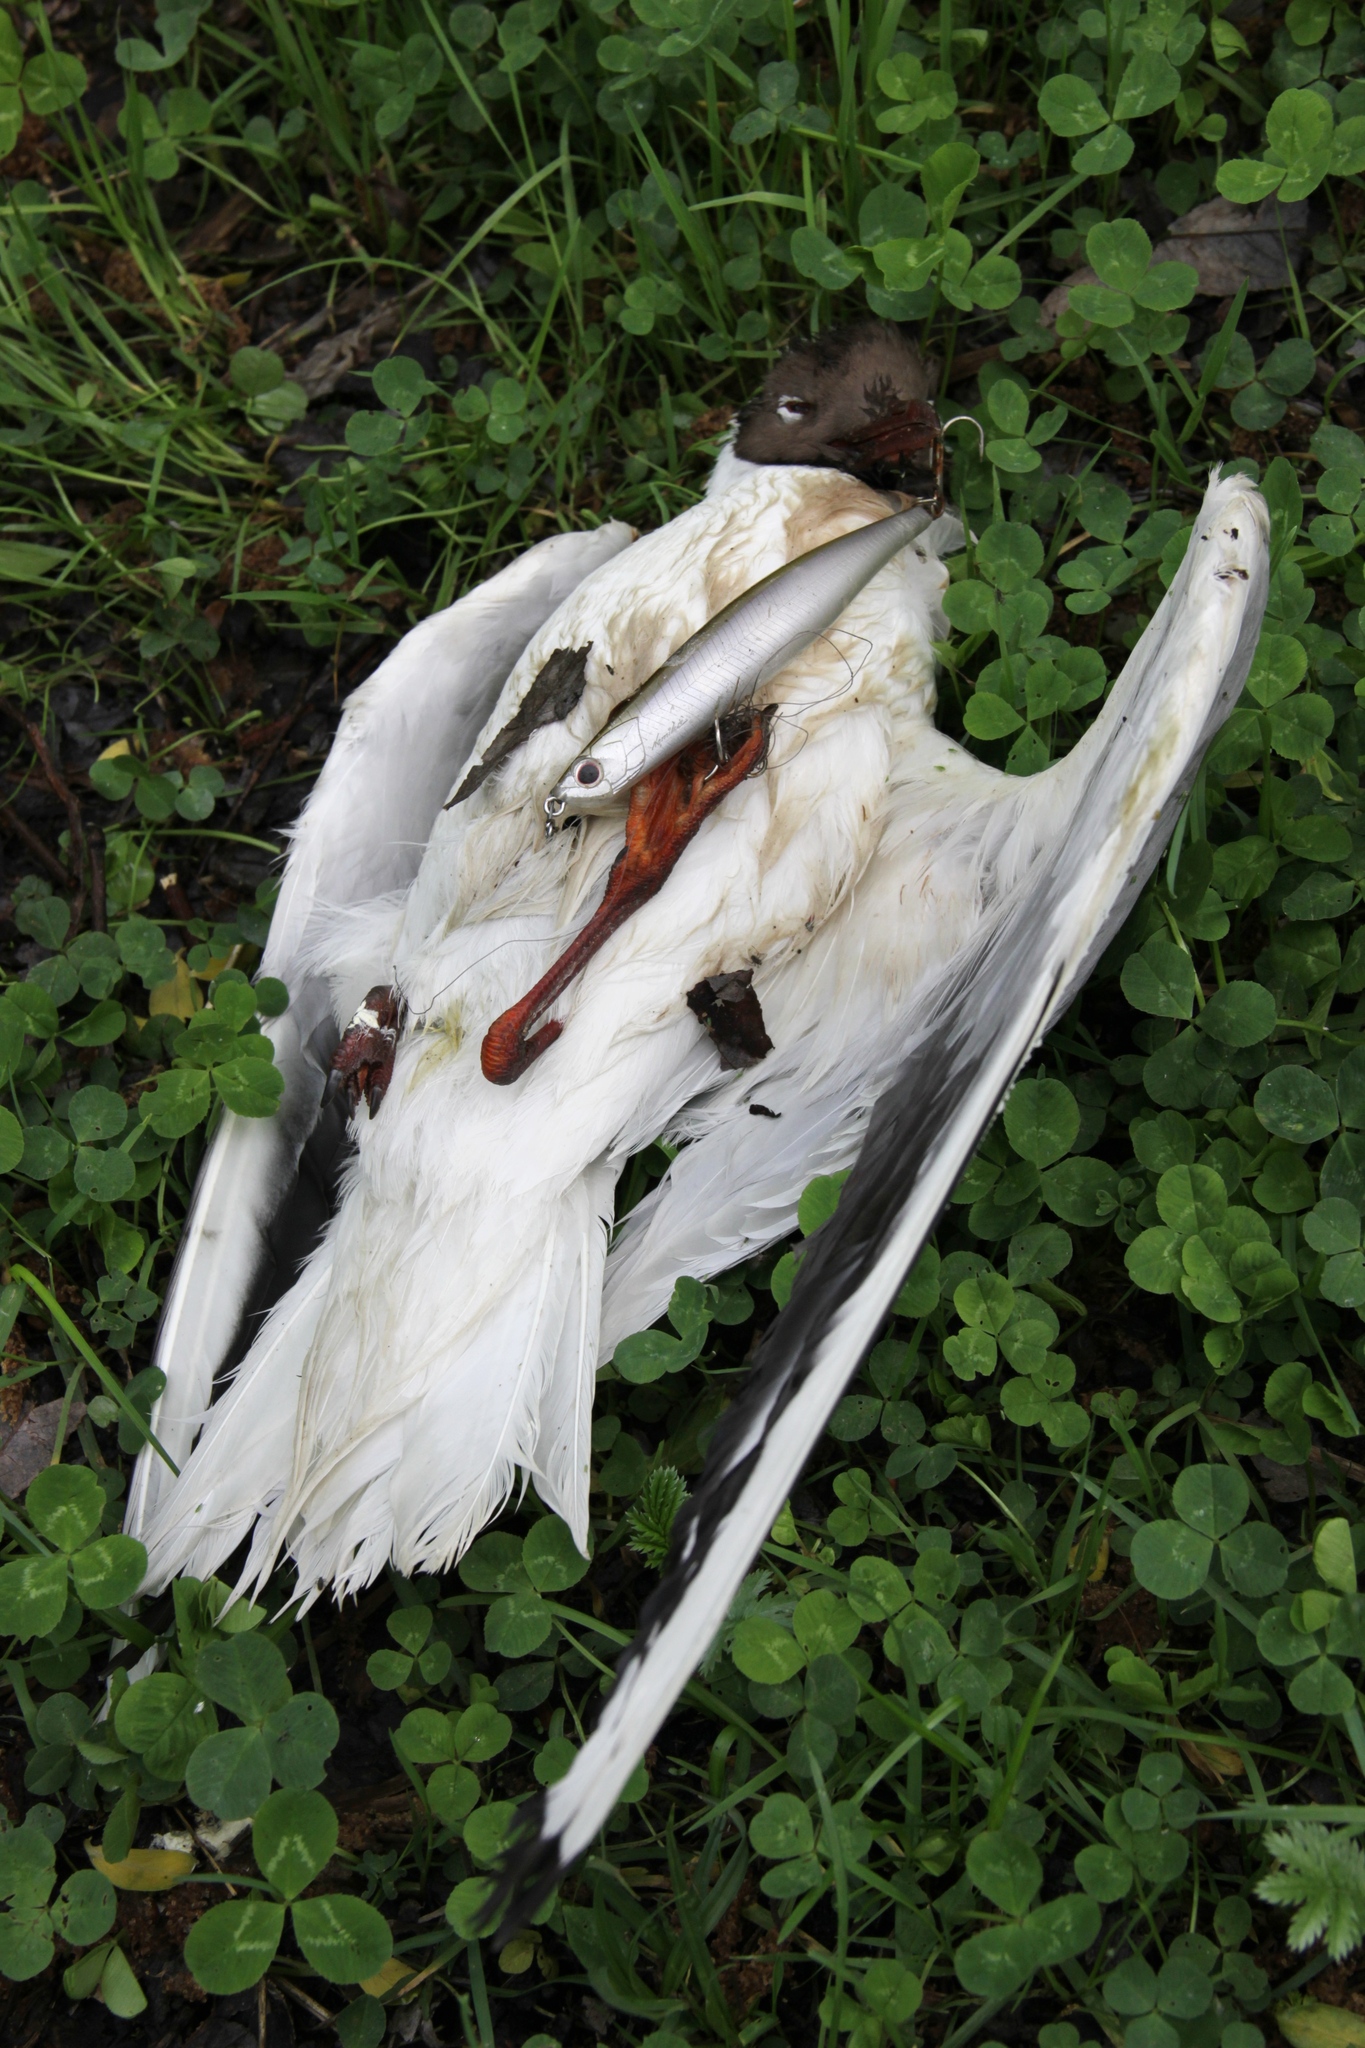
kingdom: Animalia
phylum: Chordata
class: Aves
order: Charadriiformes
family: Laridae
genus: Chroicocephalus
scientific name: Chroicocephalus ridibundus
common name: Black-headed gull
